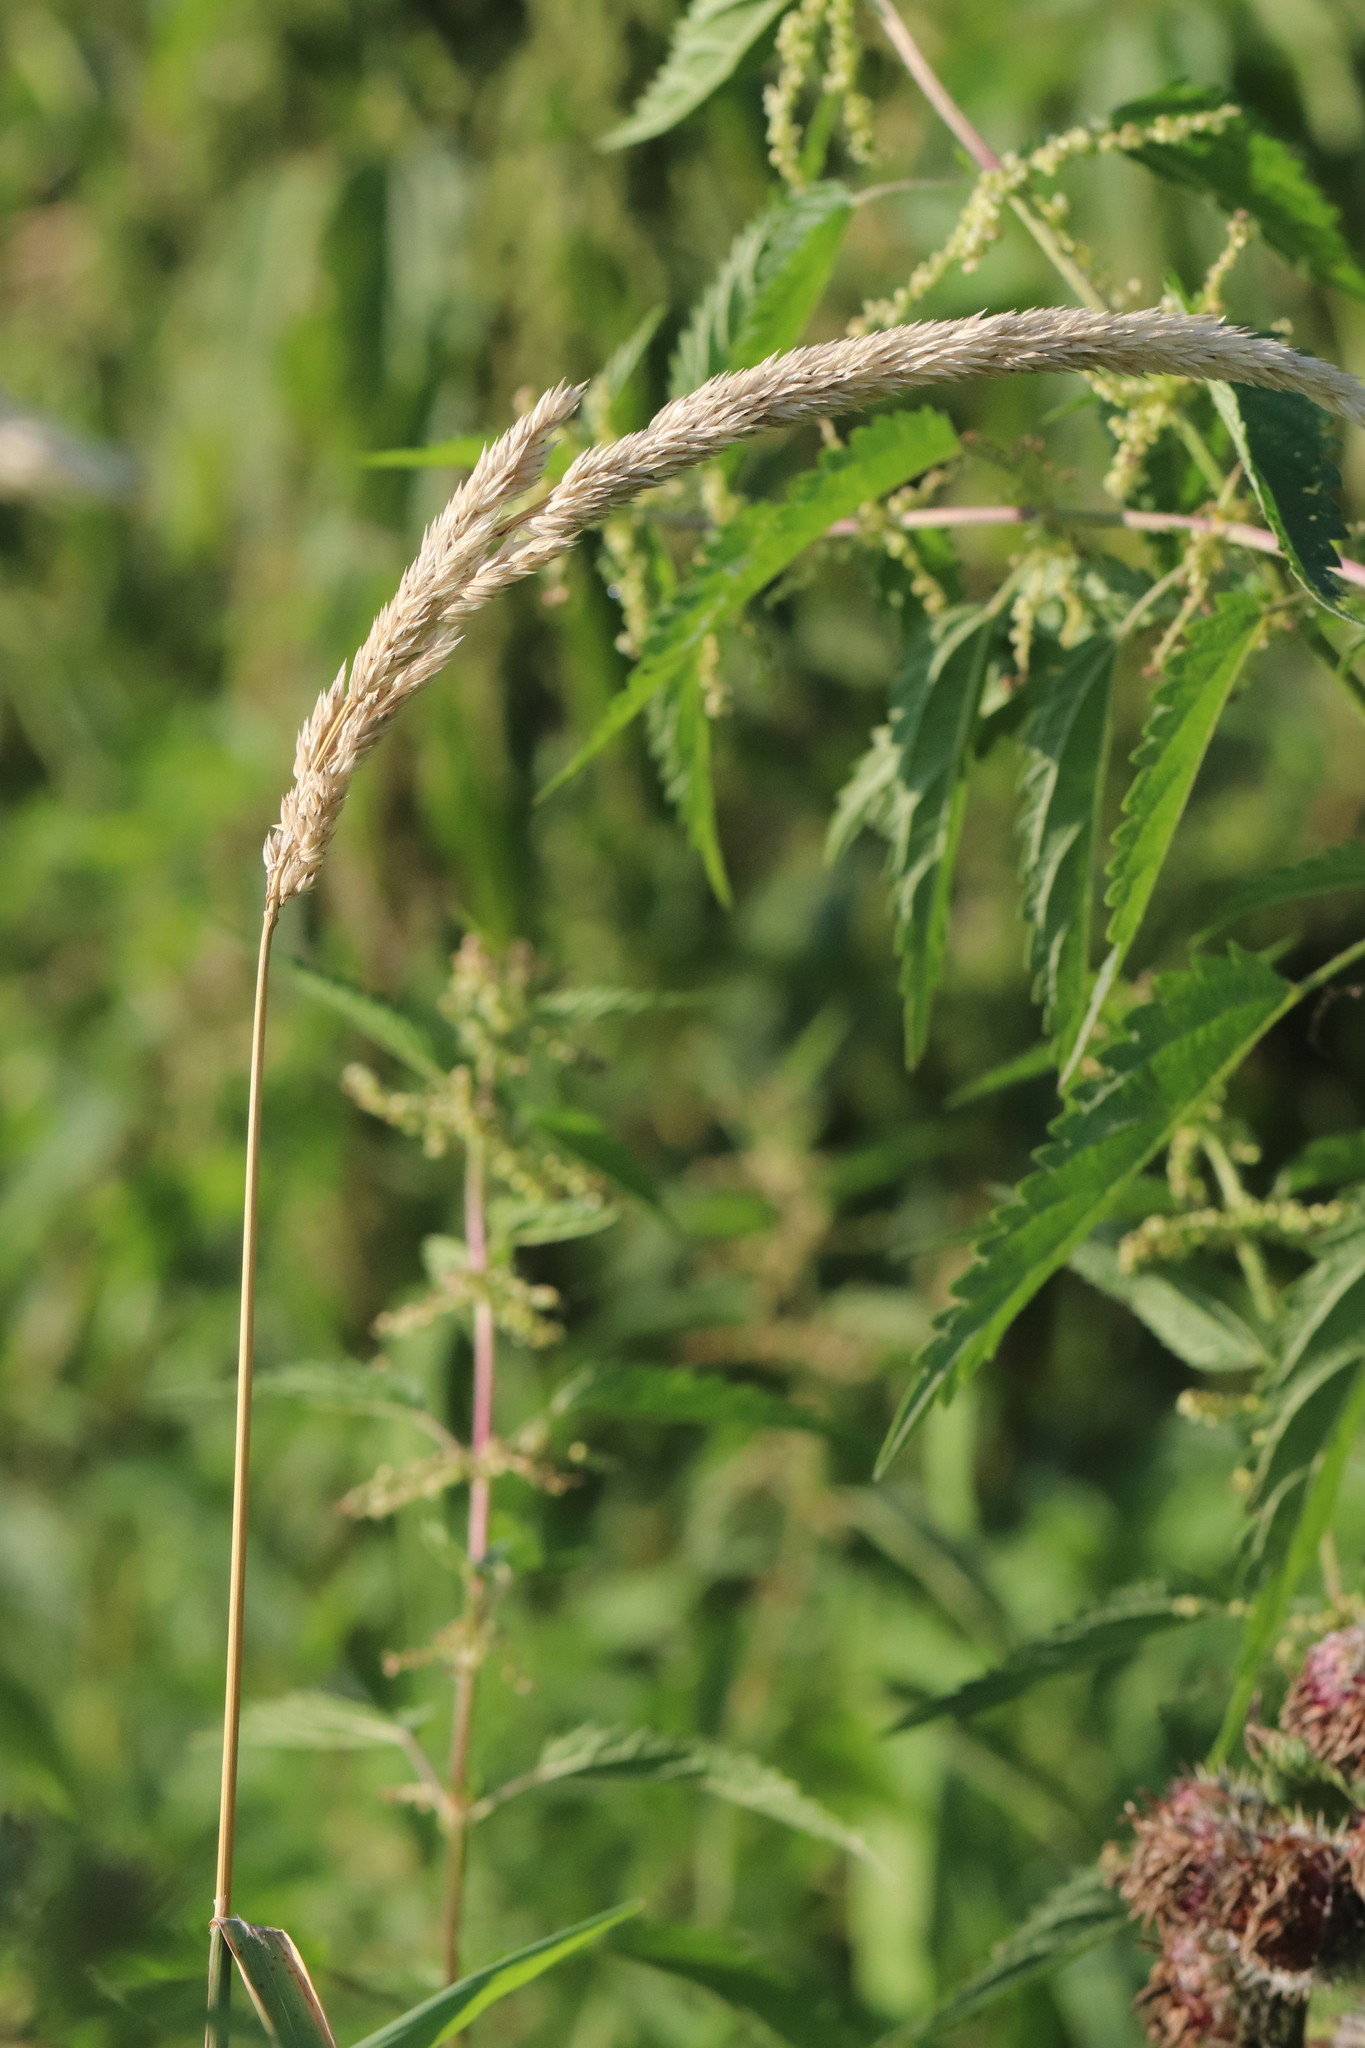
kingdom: Plantae
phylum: Tracheophyta
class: Liliopsida
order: Poales
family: Poaceae
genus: Phalaris
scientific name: Phalaris arundinacea
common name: Reed canary-grass
